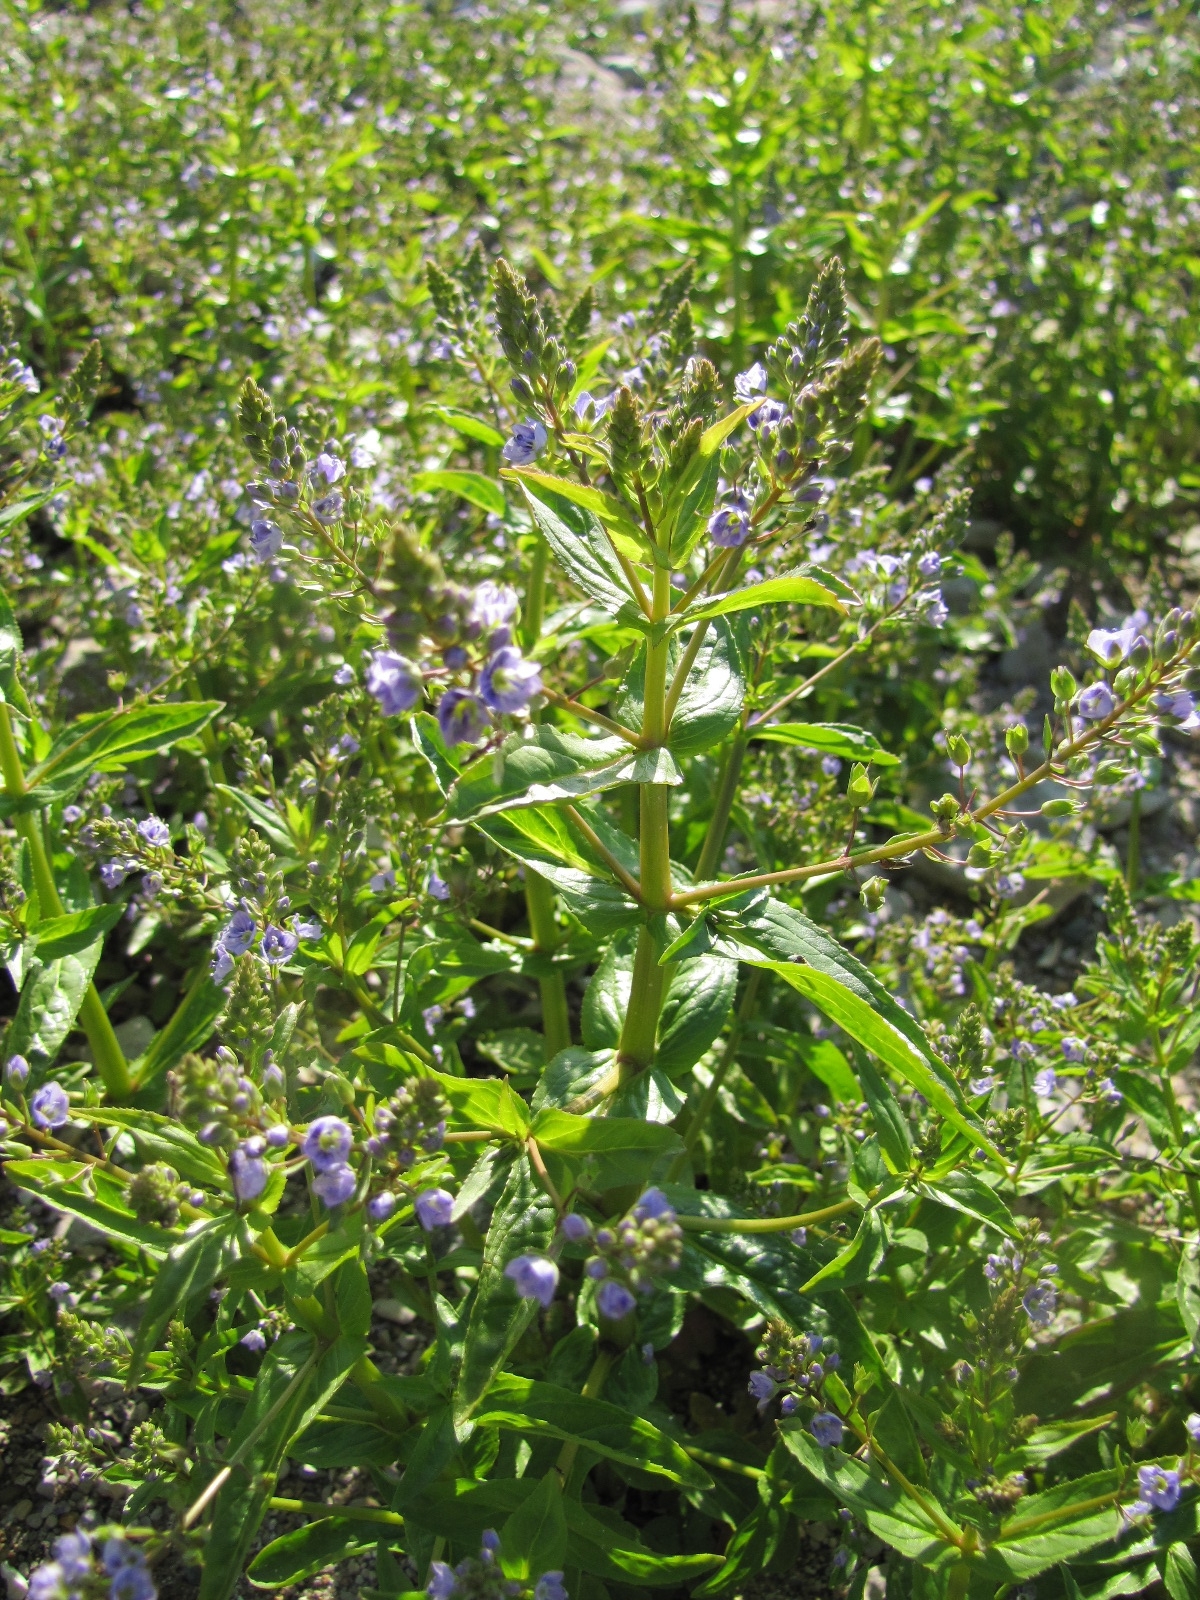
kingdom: Plantae
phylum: Tracheophyta
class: Magnoliopsida
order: Lamiales
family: Plantaginaceae
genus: Veronica
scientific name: Veronica anagallis-aquatica
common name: Water speedwell
